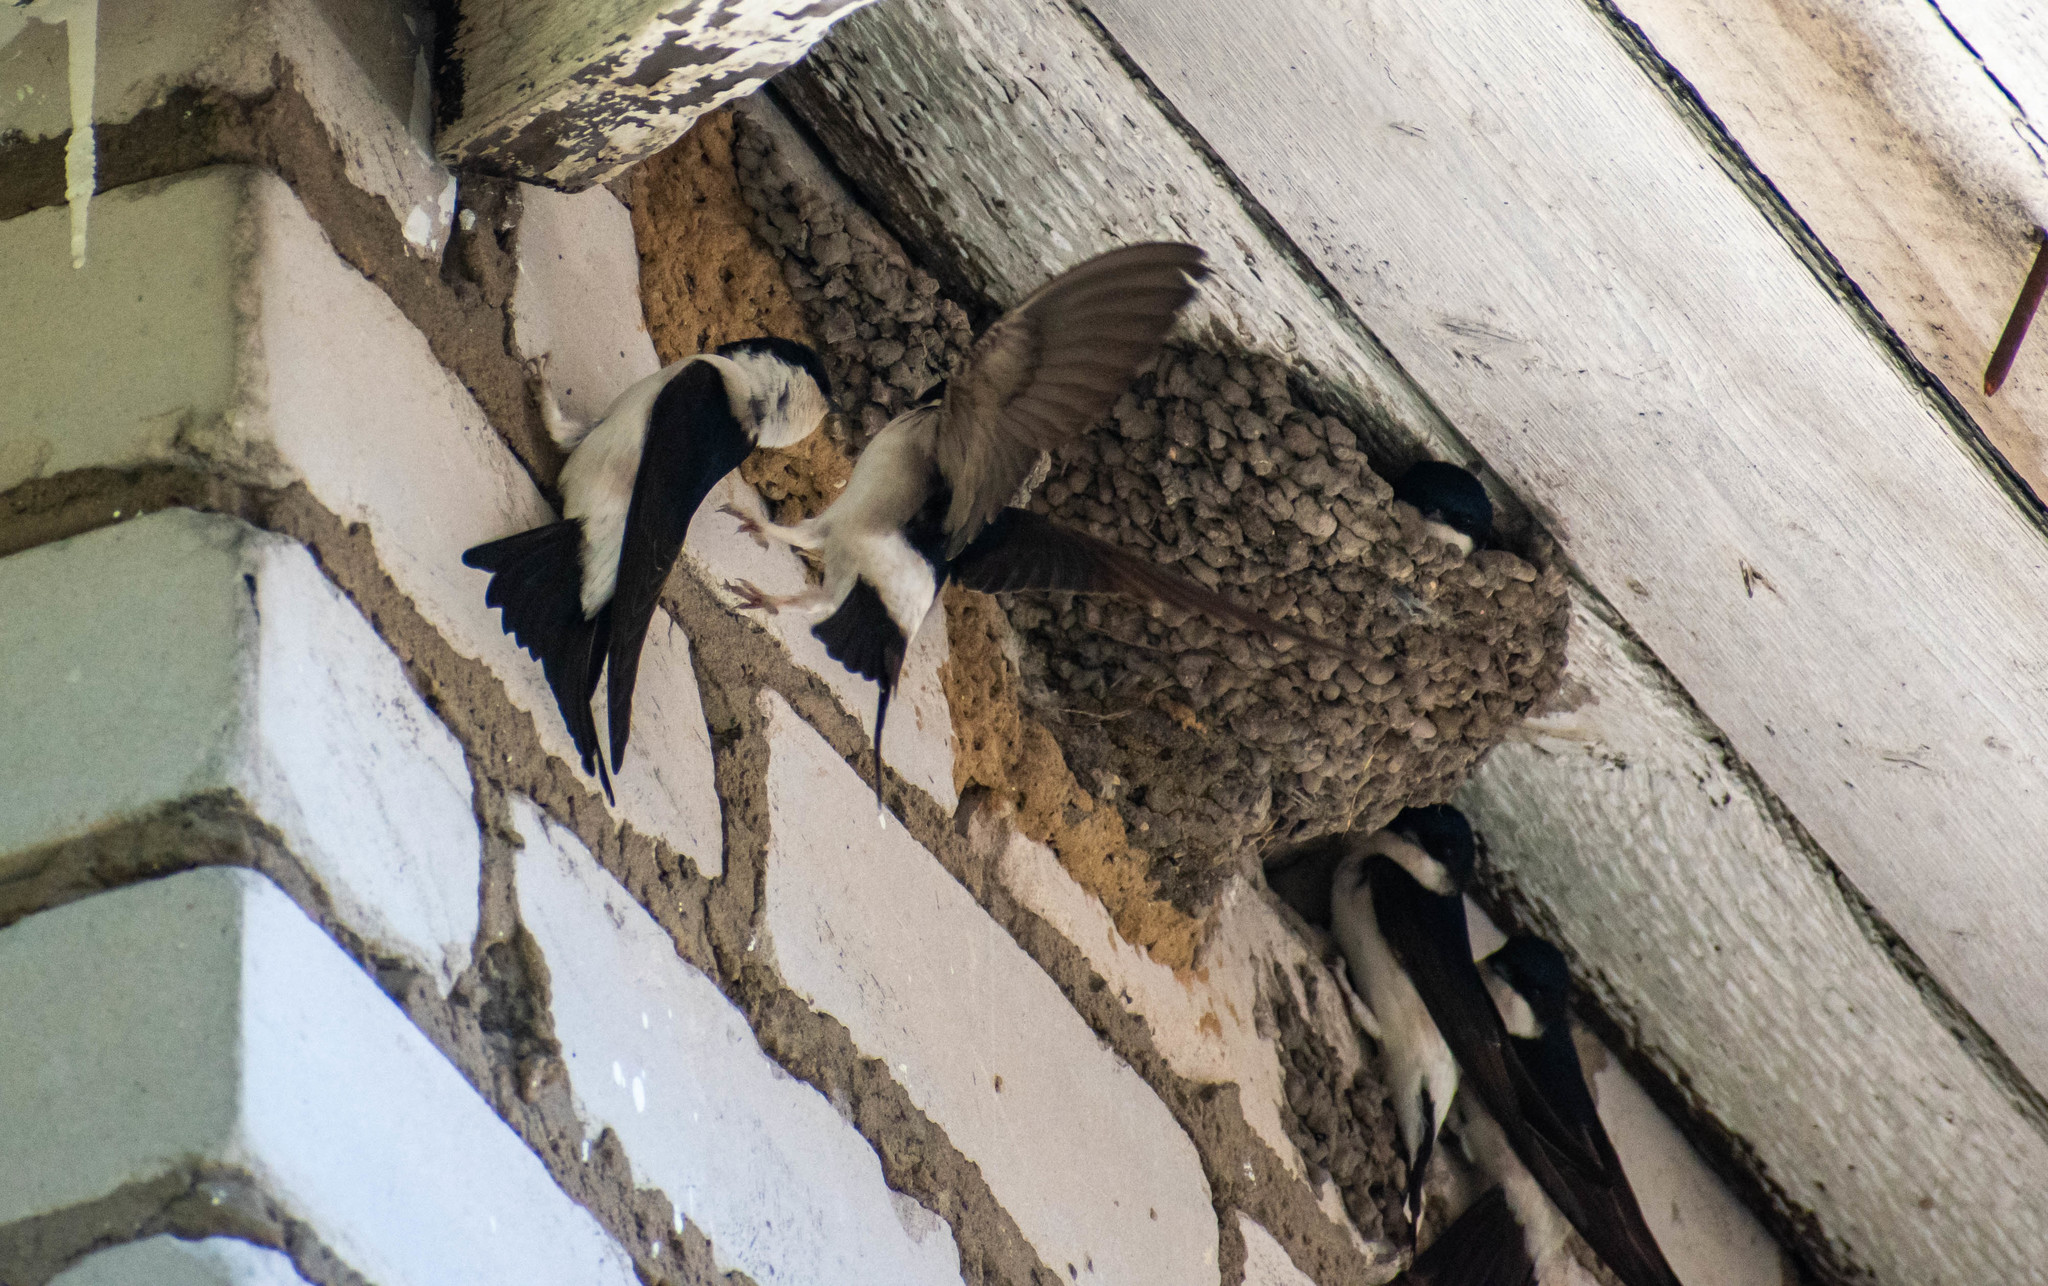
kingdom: Animalia
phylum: Chordata
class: Aves
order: Passeriformes
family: Hirundinidae
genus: Delichon
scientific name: Delichon urbicum
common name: Common house martin
